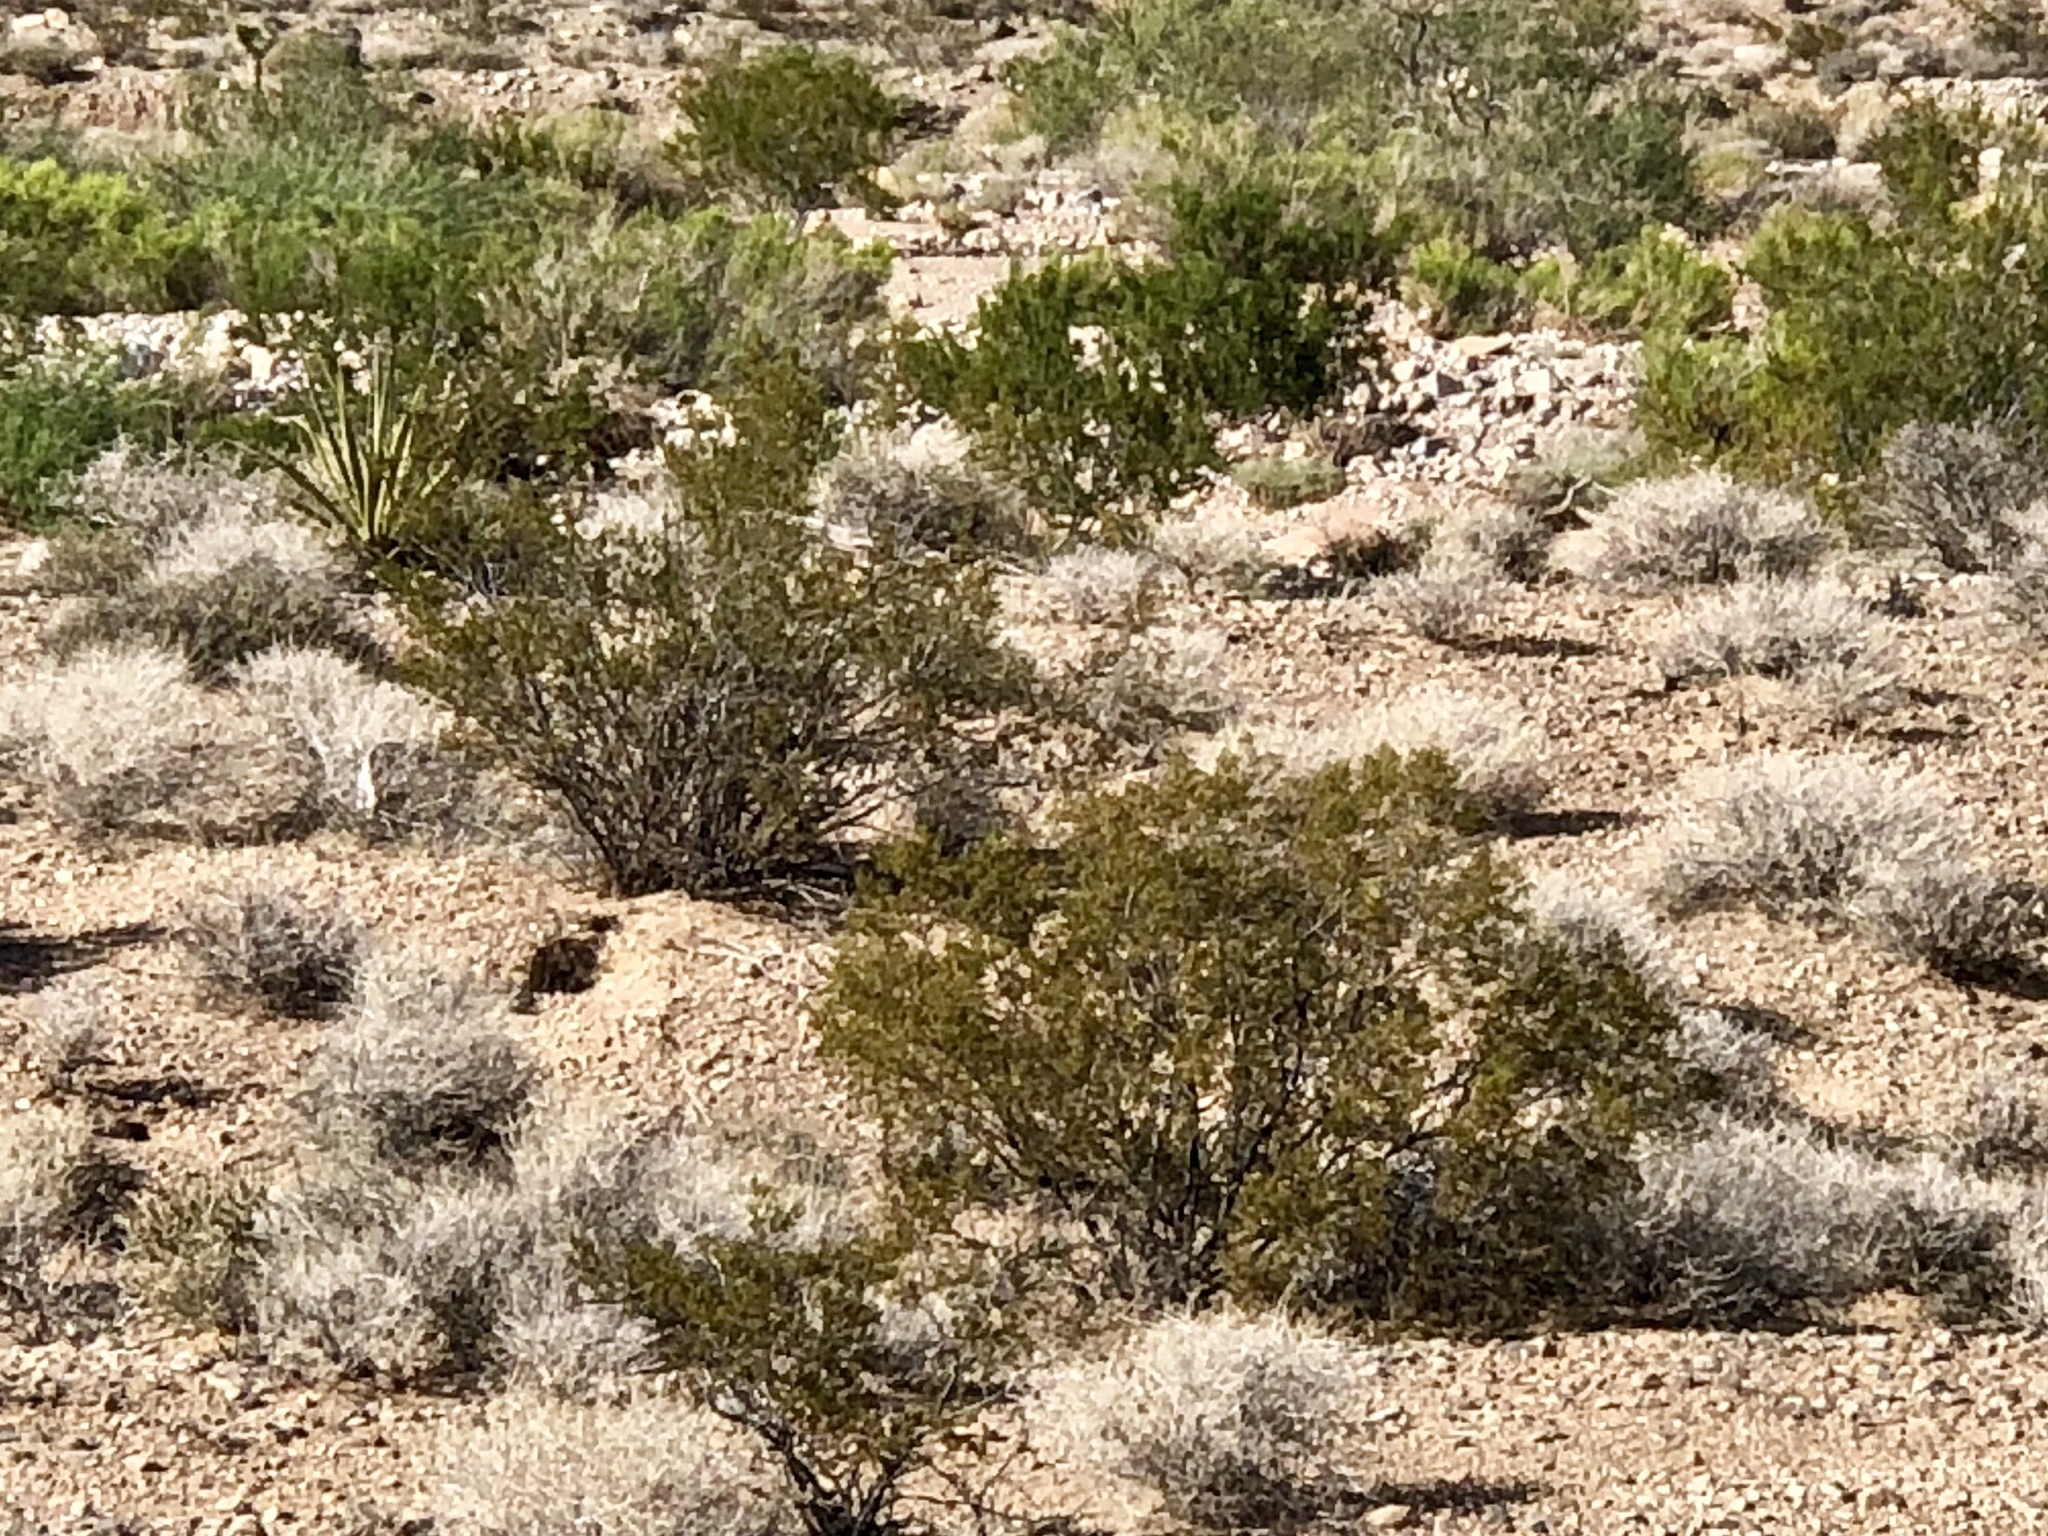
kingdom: Plantae
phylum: Tracheophyta
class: Magnoliopsida
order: Zygophyllales
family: Zygophyllaceae
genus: Larrea
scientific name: Larrea tridentata
